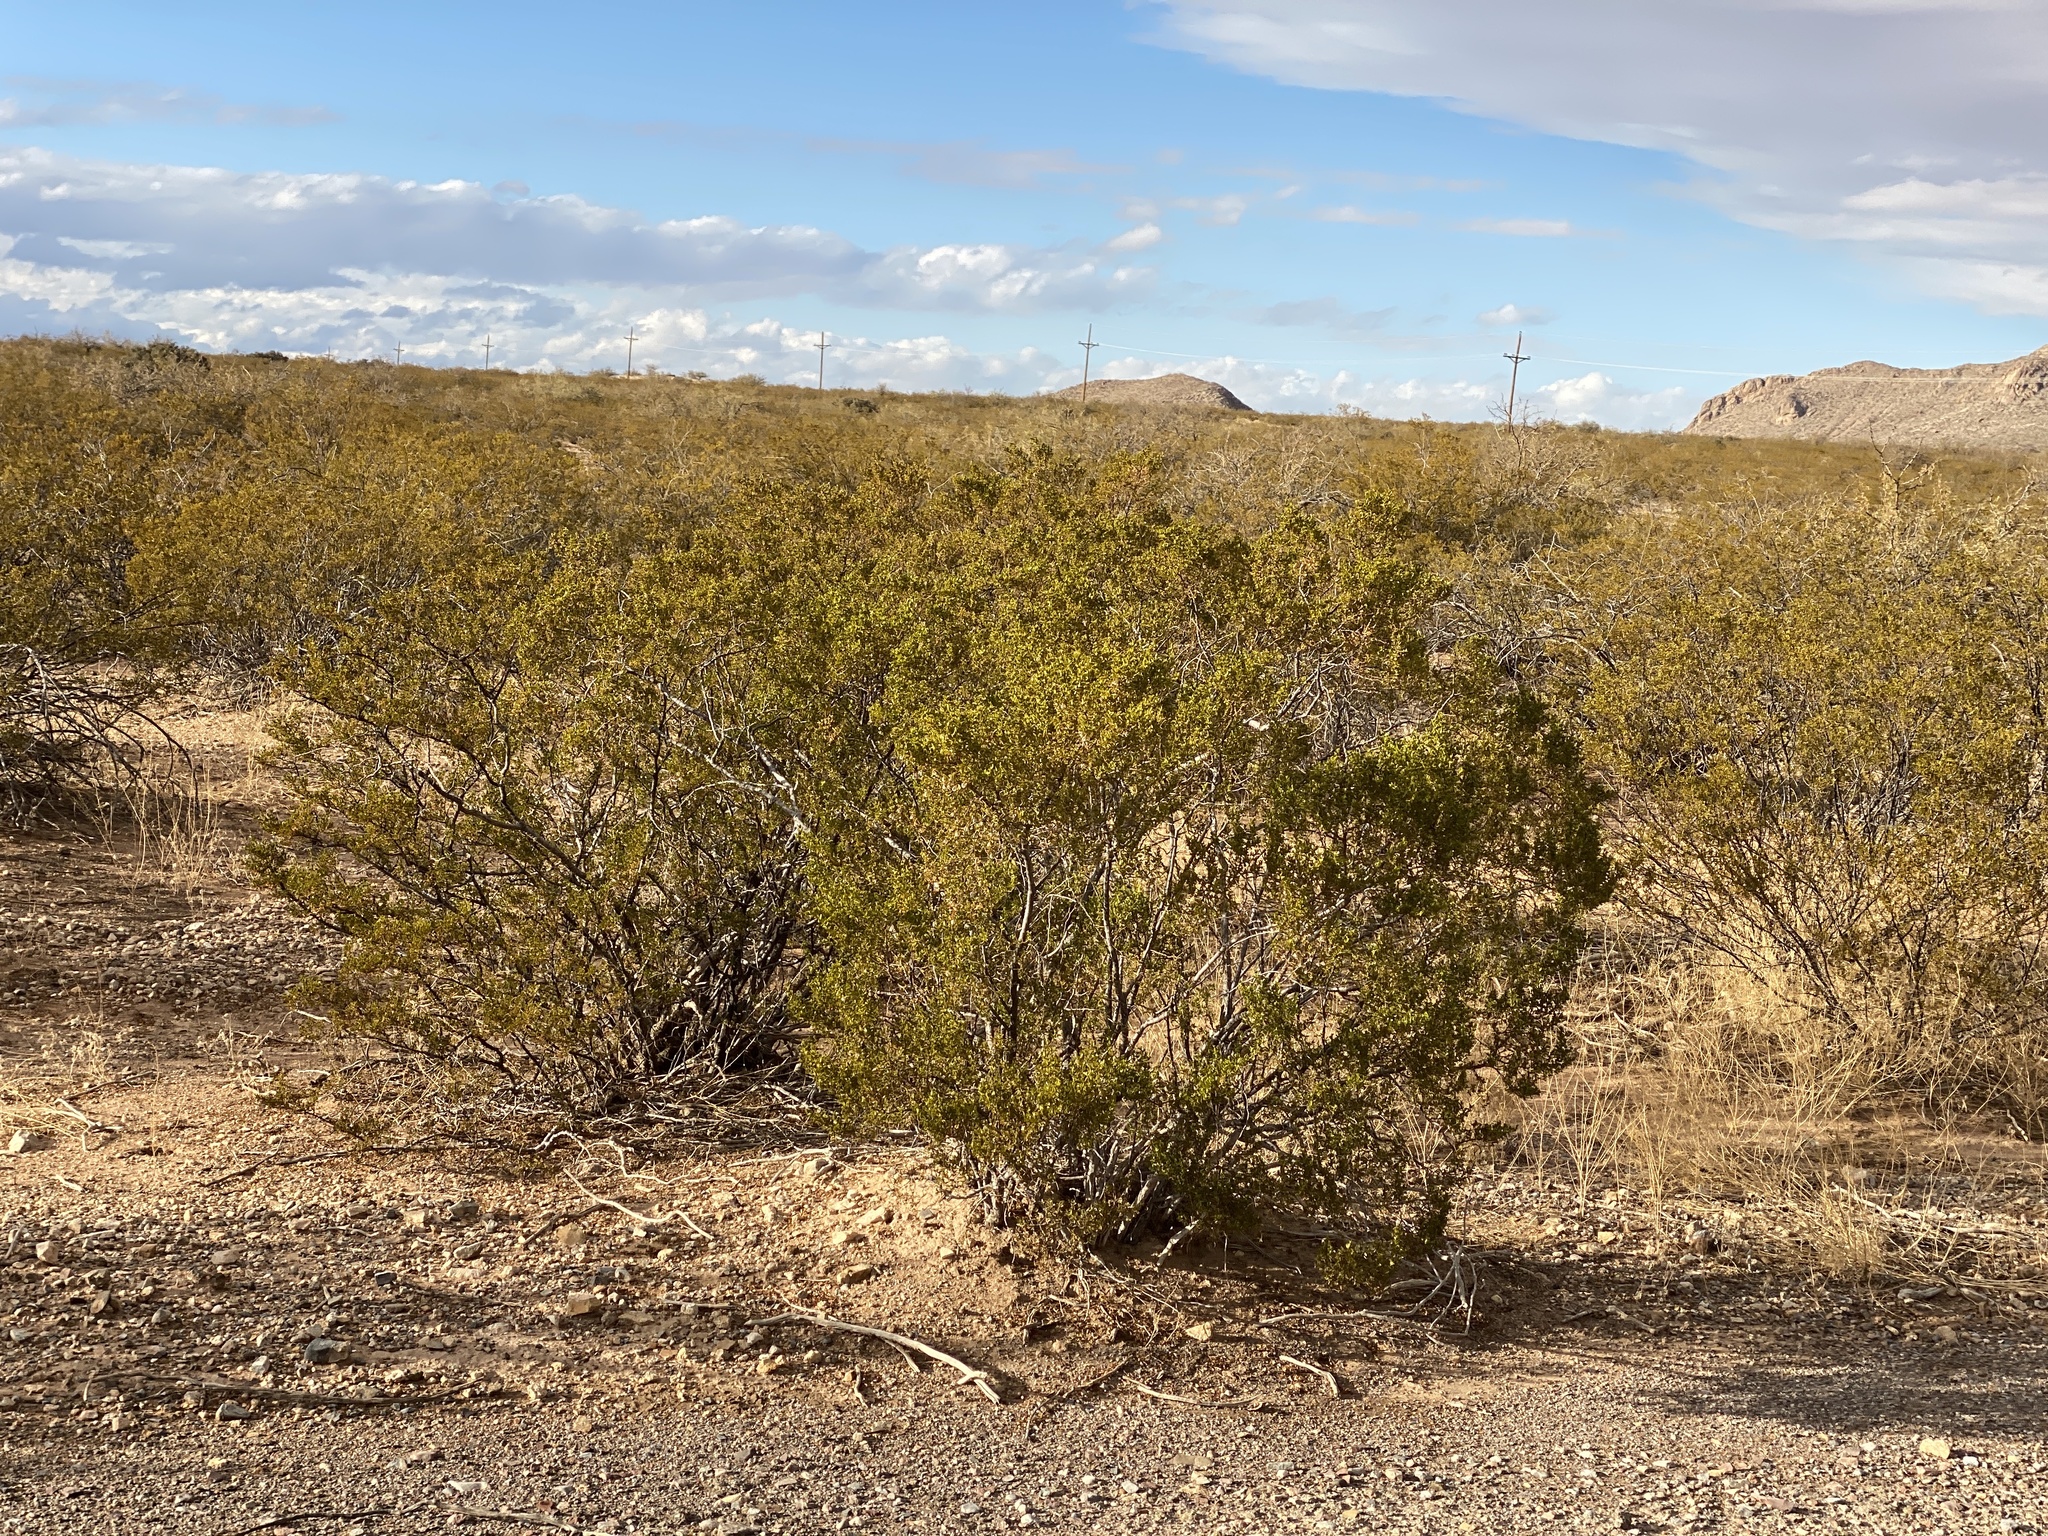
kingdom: Plantae
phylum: Tracheophyta
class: Magnoliopsida
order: Zygophyllales
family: Zygophyllaceae
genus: Larrea
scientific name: Larrea tridentata
